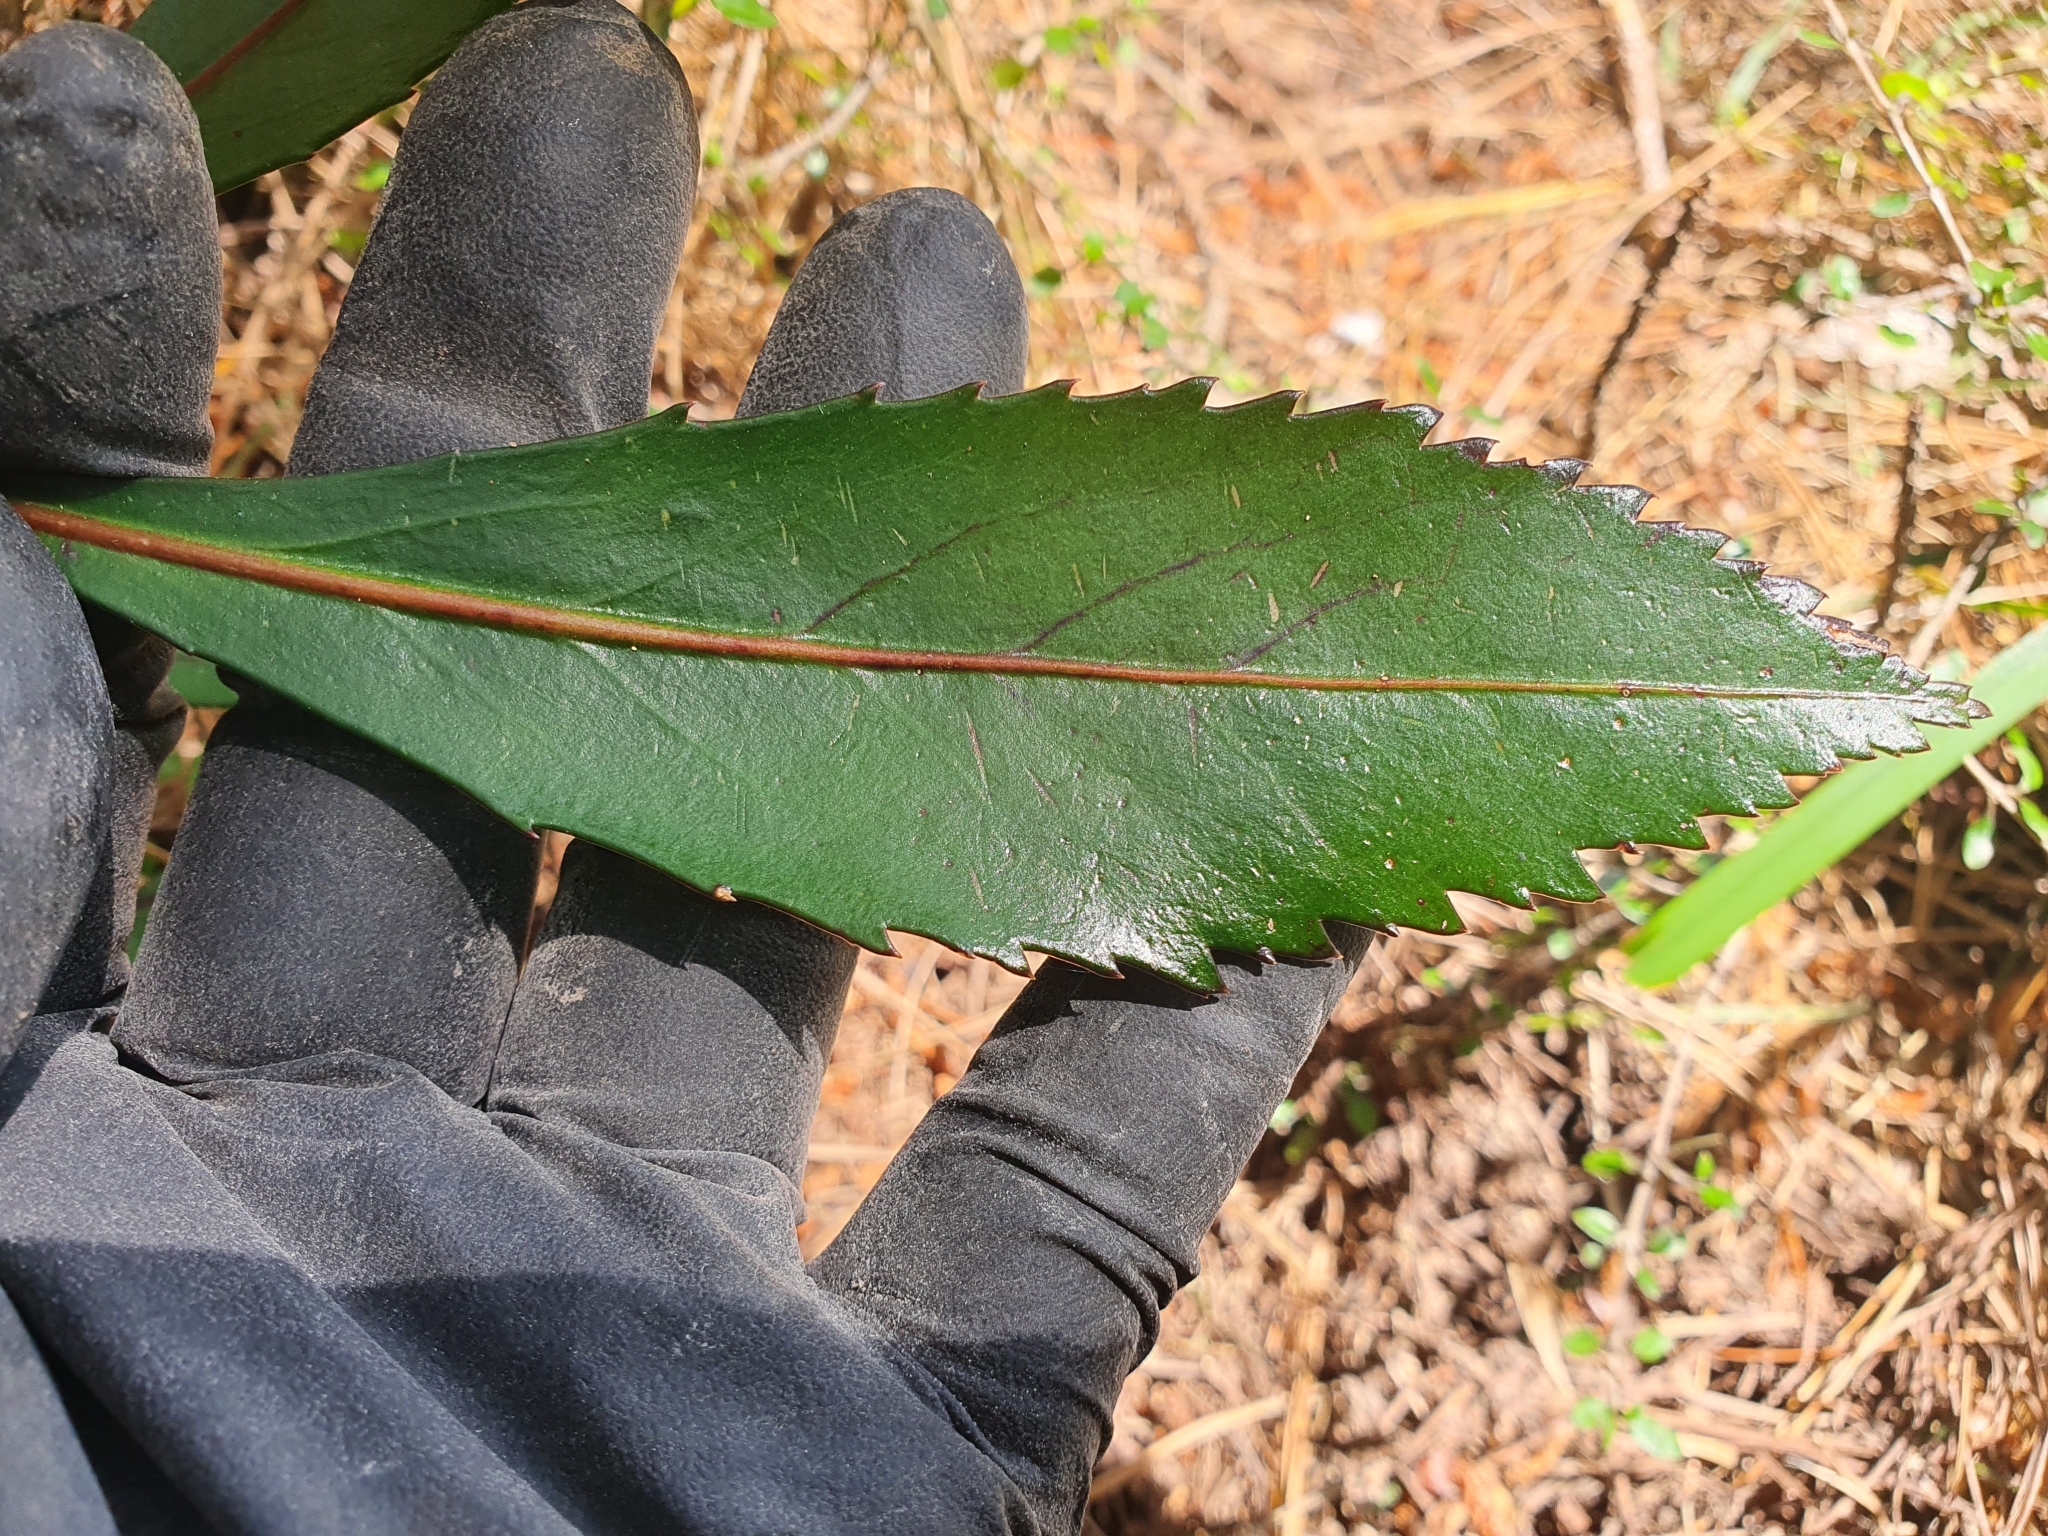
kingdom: Plantae
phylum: Tracheophyta
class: Magnoliopsida
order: Apiales
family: Araliaceae
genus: Pseudopanax
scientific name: Pseudopanax
